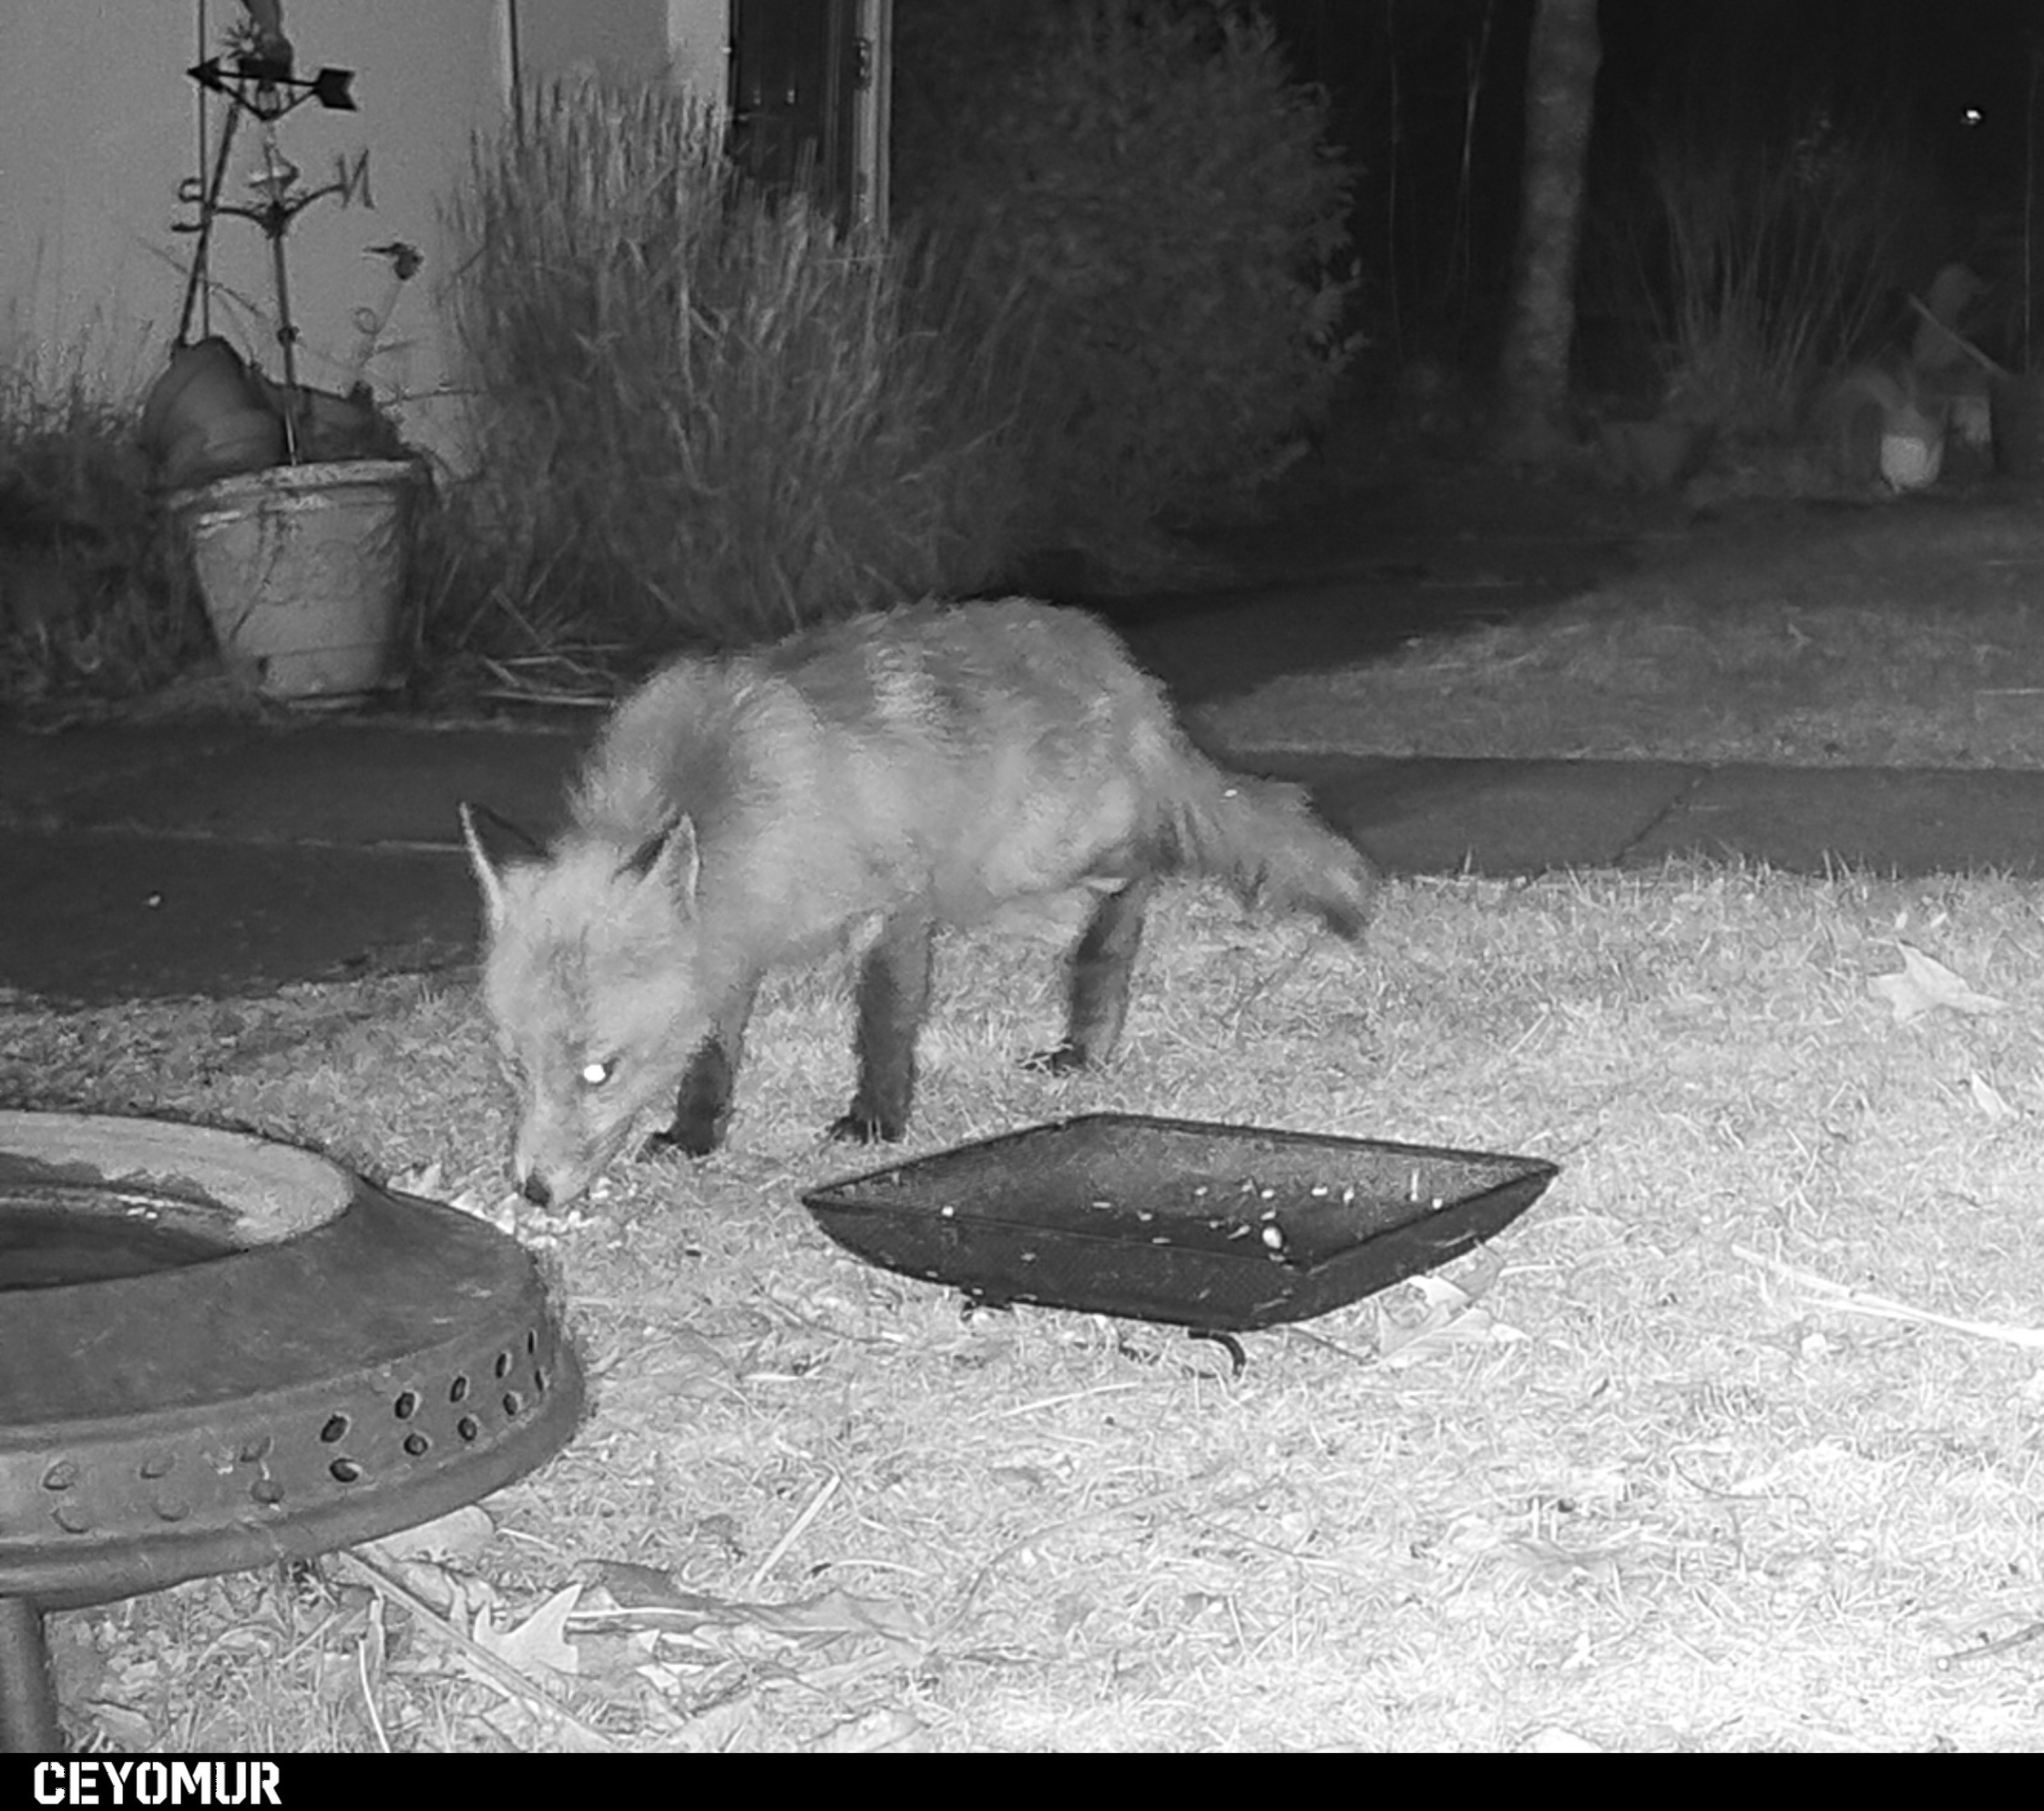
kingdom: Animalia
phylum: Chordata
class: Mammalia
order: Carnivora
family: Canidae
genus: Vulpes
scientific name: Vulpes vulpes
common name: Red fox
